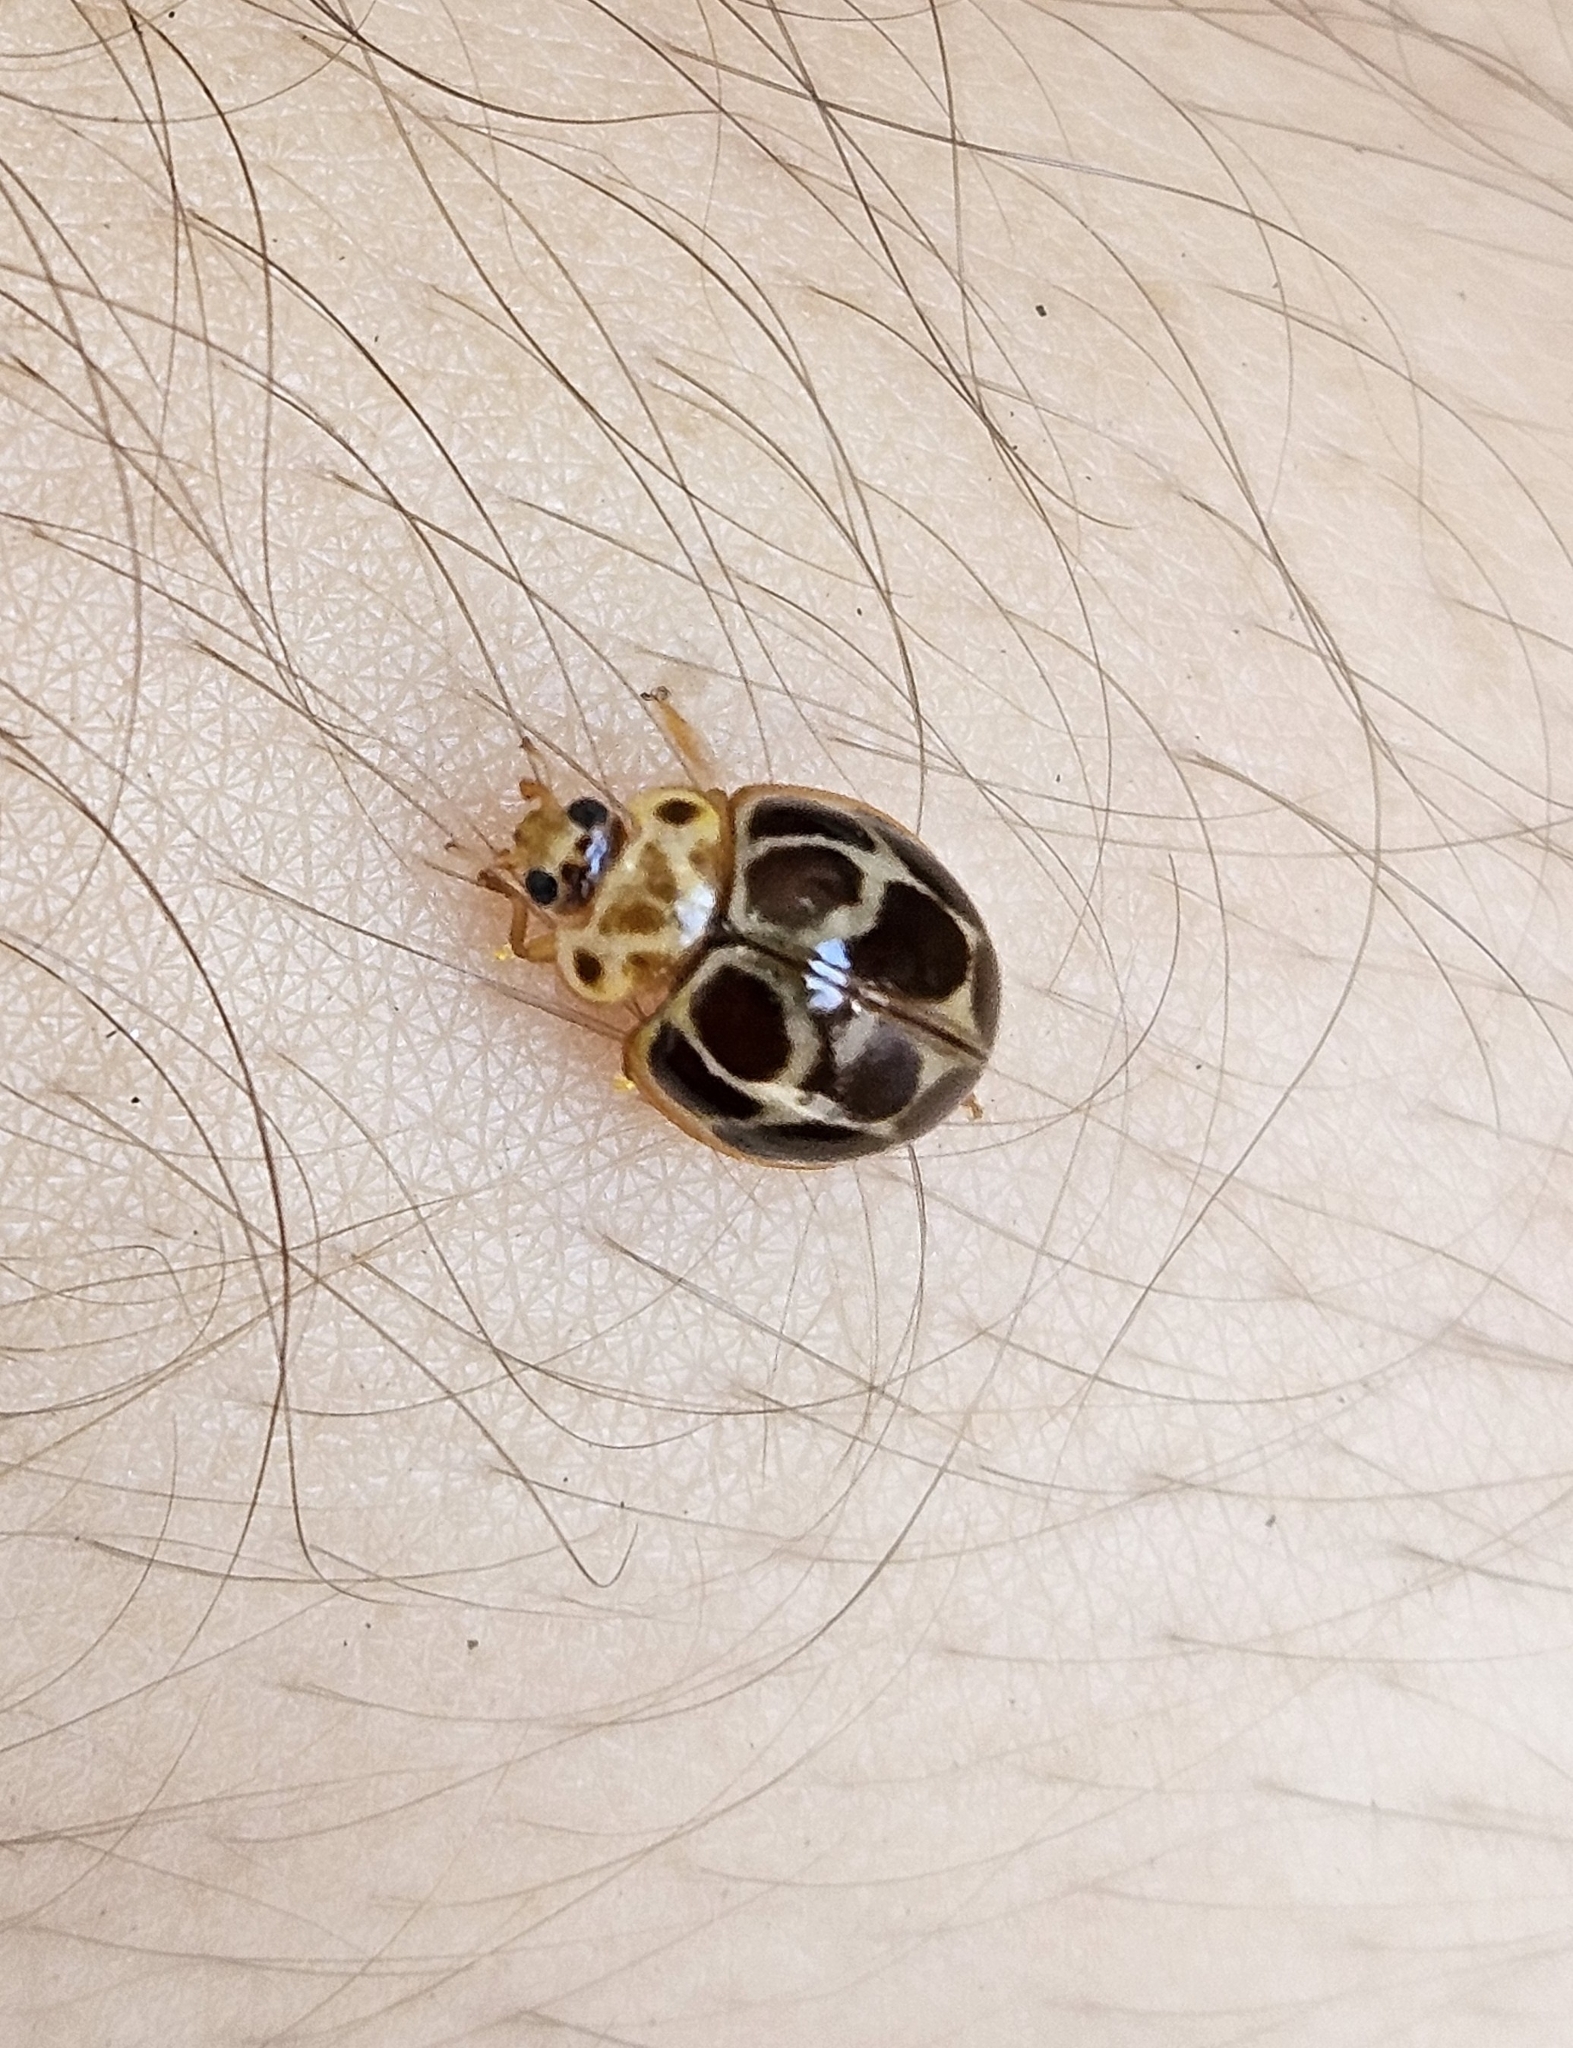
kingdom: Animalia
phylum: Arthropoda
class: Insecta
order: Coleoptera
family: Coccinellidae
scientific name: Coccinellidae
